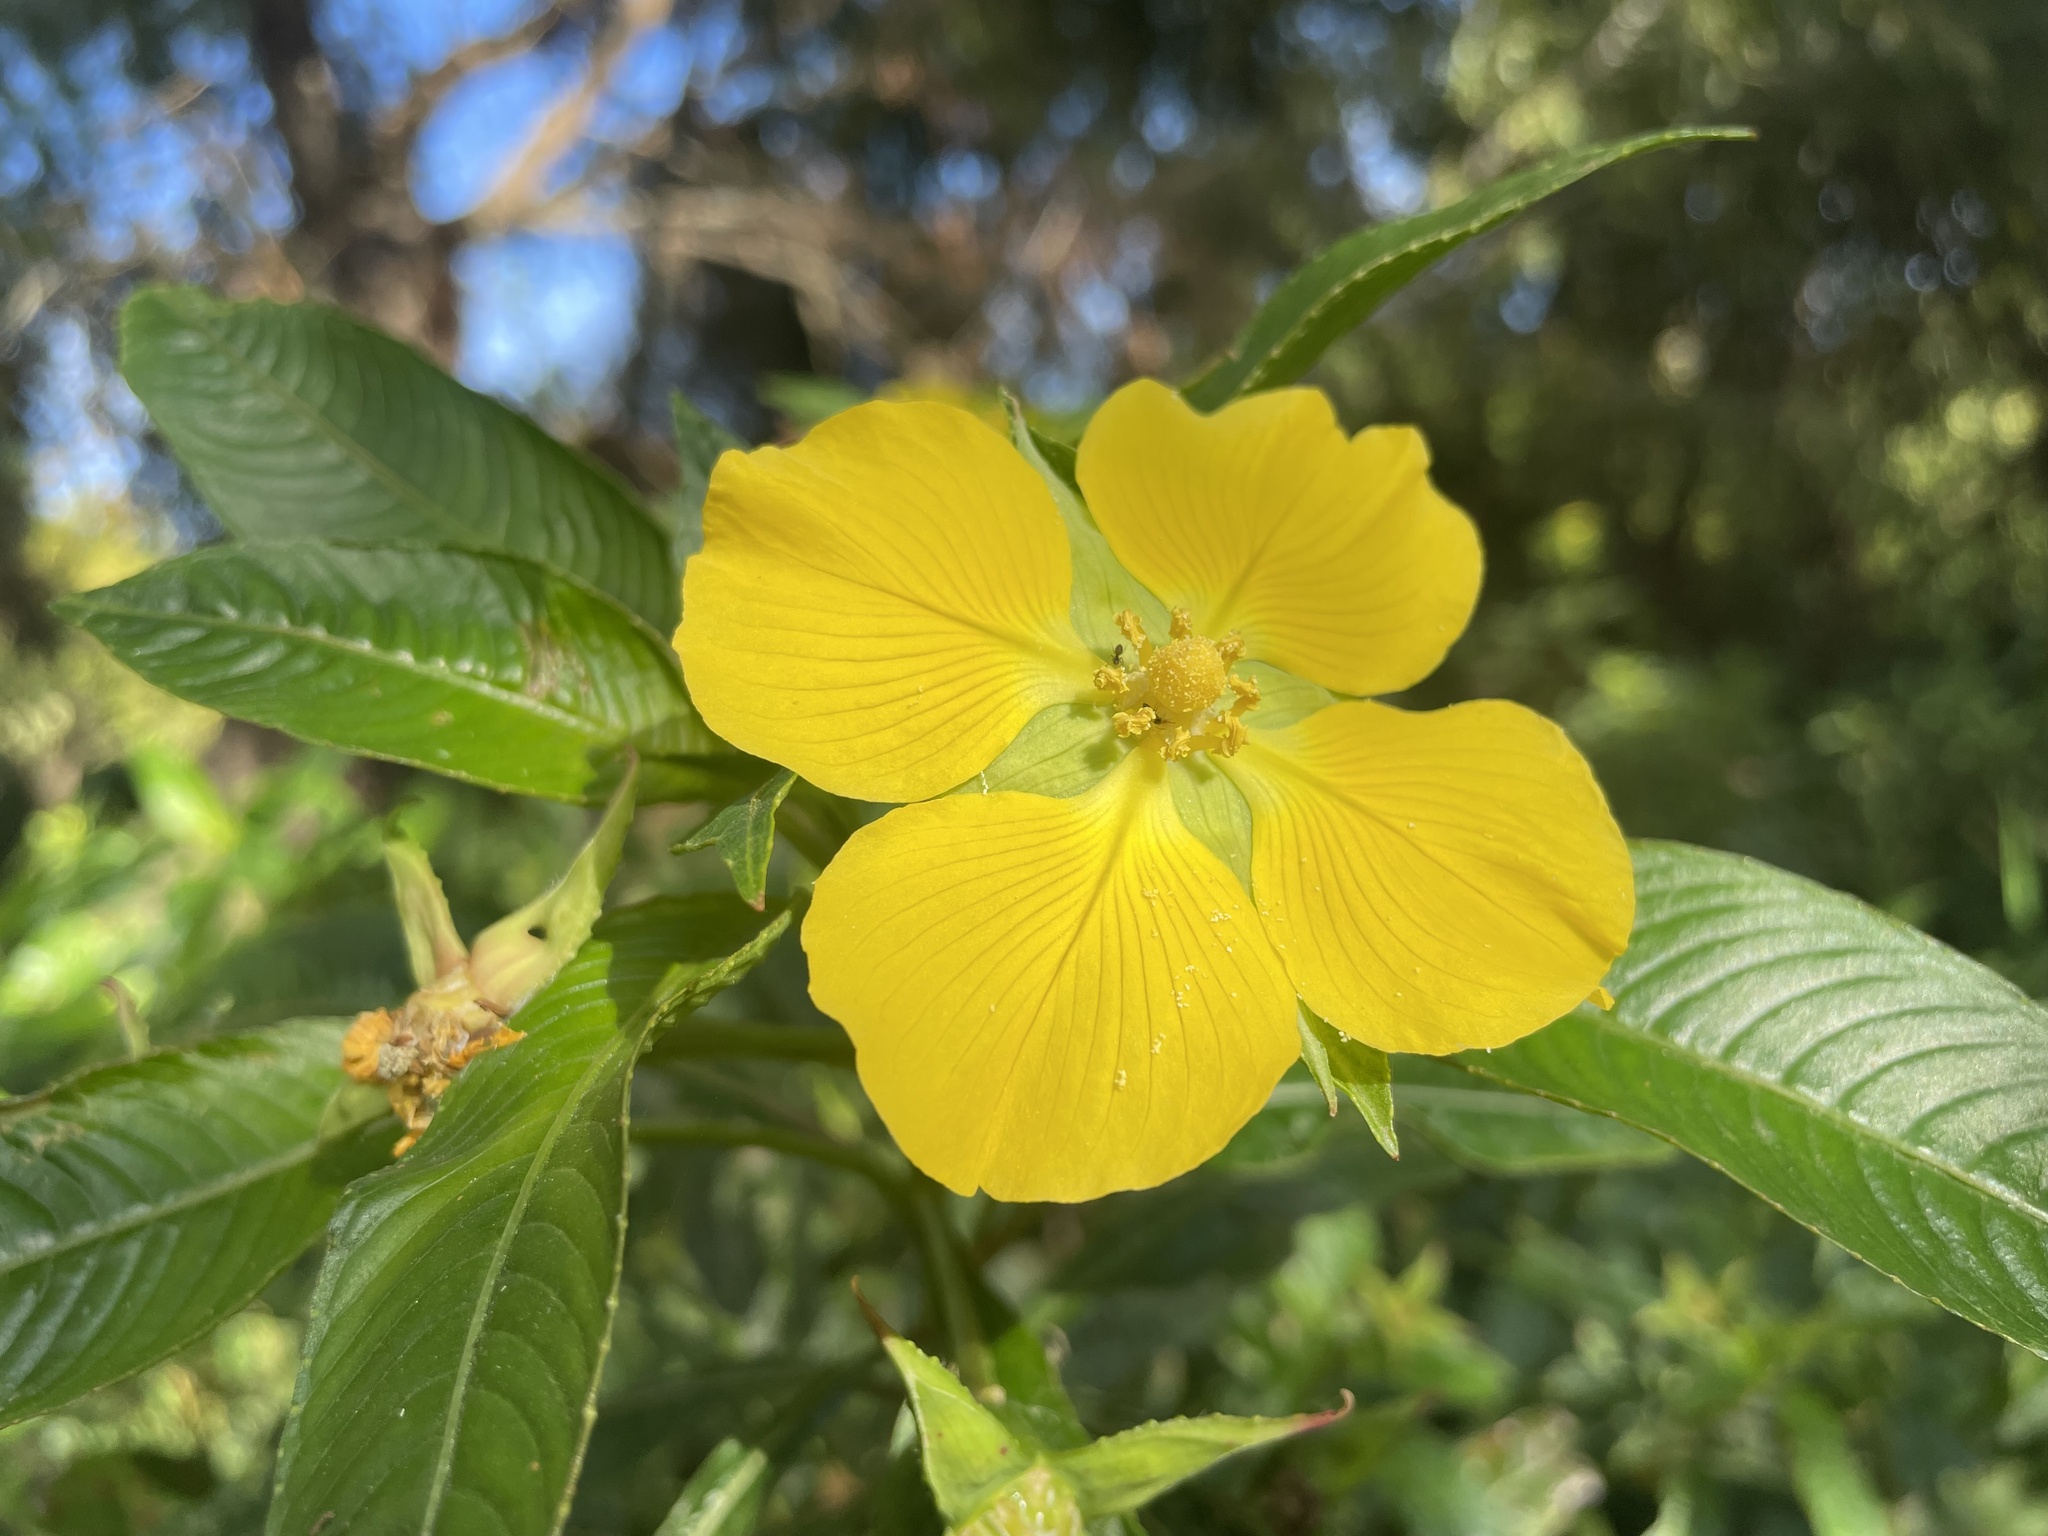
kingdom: Plantae
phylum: Tracheophyta
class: Magnoliopsida
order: Myrtales
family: Onagraceae
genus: Ludwigia
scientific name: Ludwigia elegans
